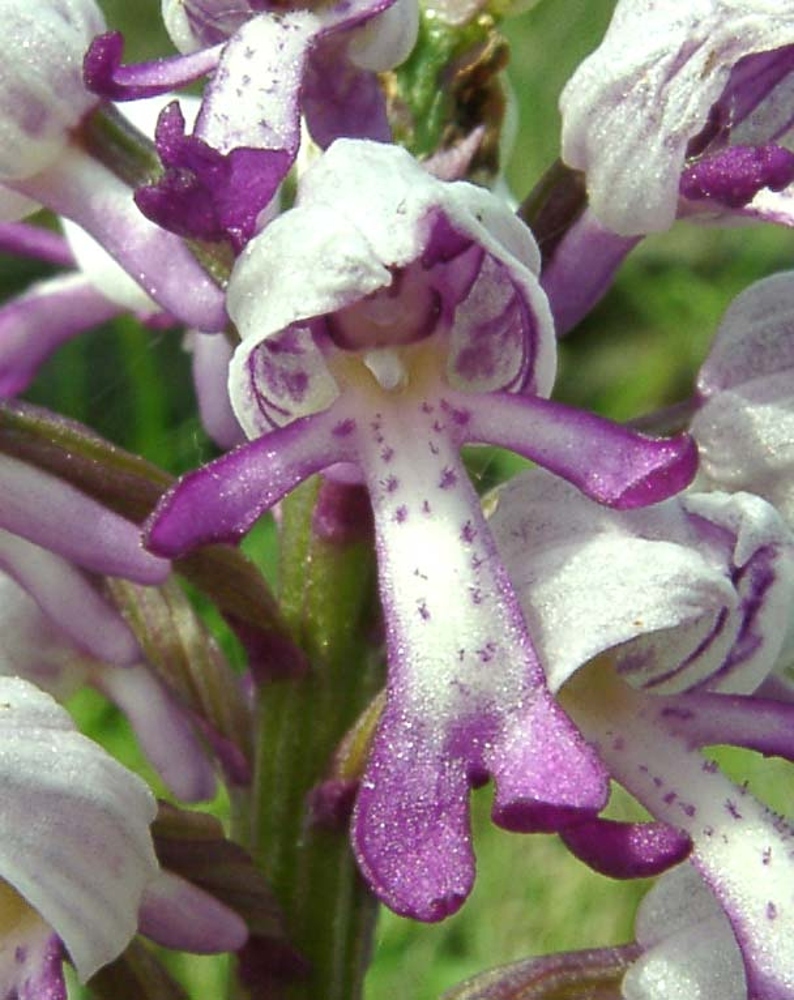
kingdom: Plantae
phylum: Tracheophyta
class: Liliopsida
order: Asparagales
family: Orchidaceae
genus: Orchis
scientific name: Orchis militaris
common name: Military orchid
